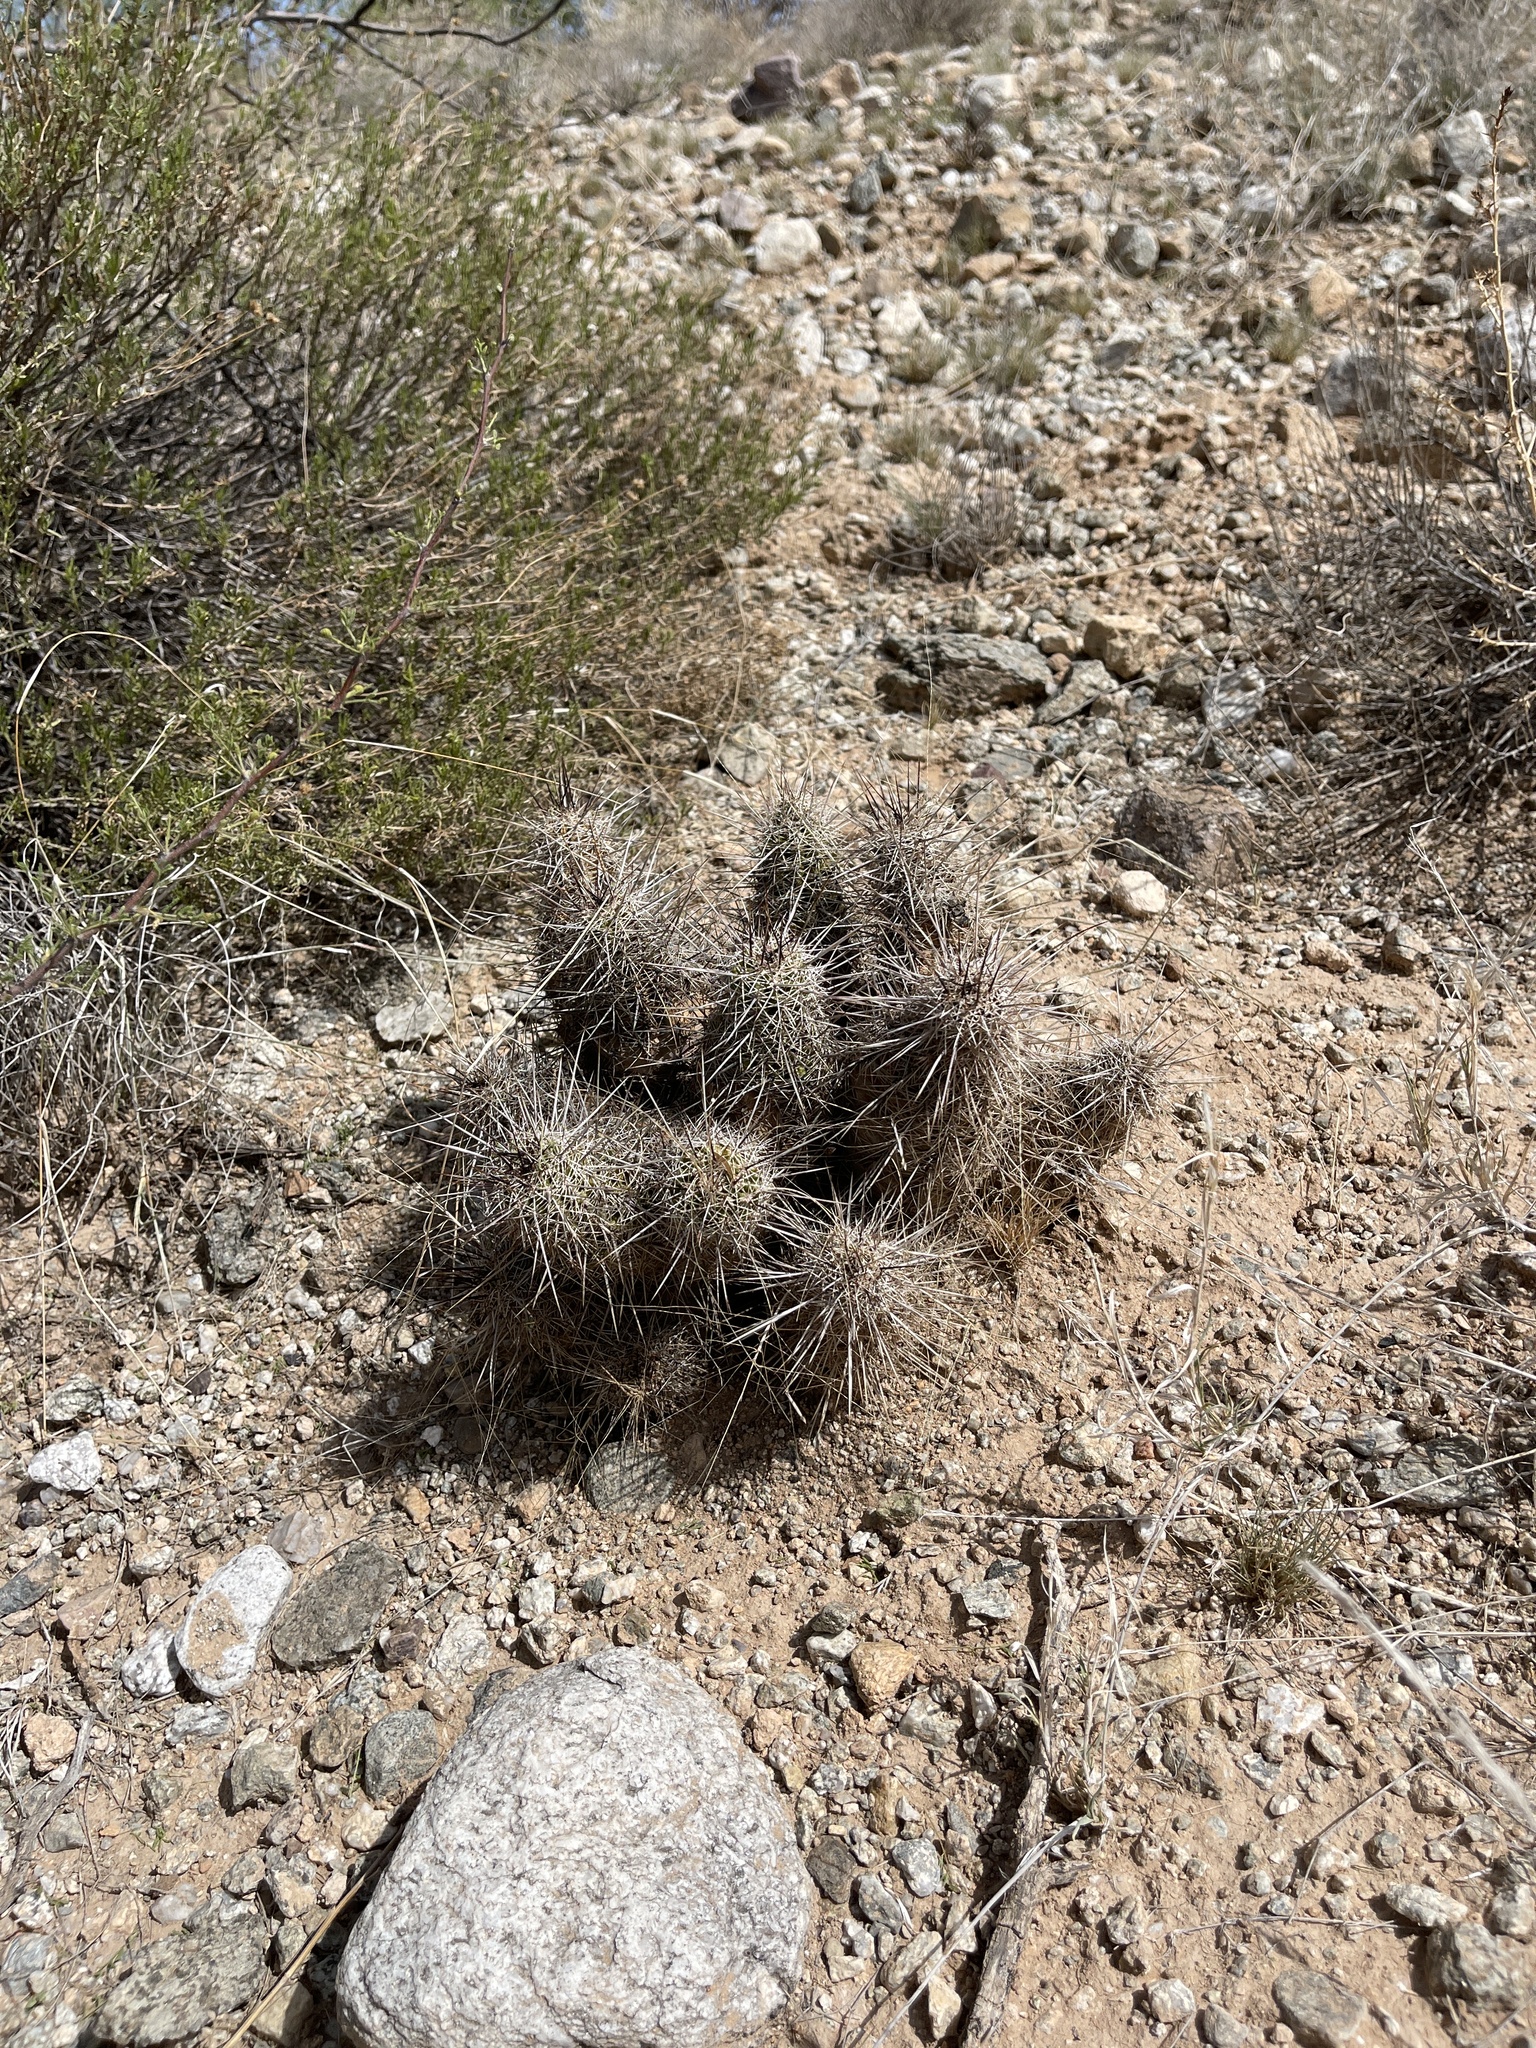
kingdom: Plantae
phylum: Tracheophyta
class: Magnoliopsida
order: Caryophyllales
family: Cactaceae
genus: Echinocereus
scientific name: Echinocereus fasciculatus
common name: Bundle hedgehog
